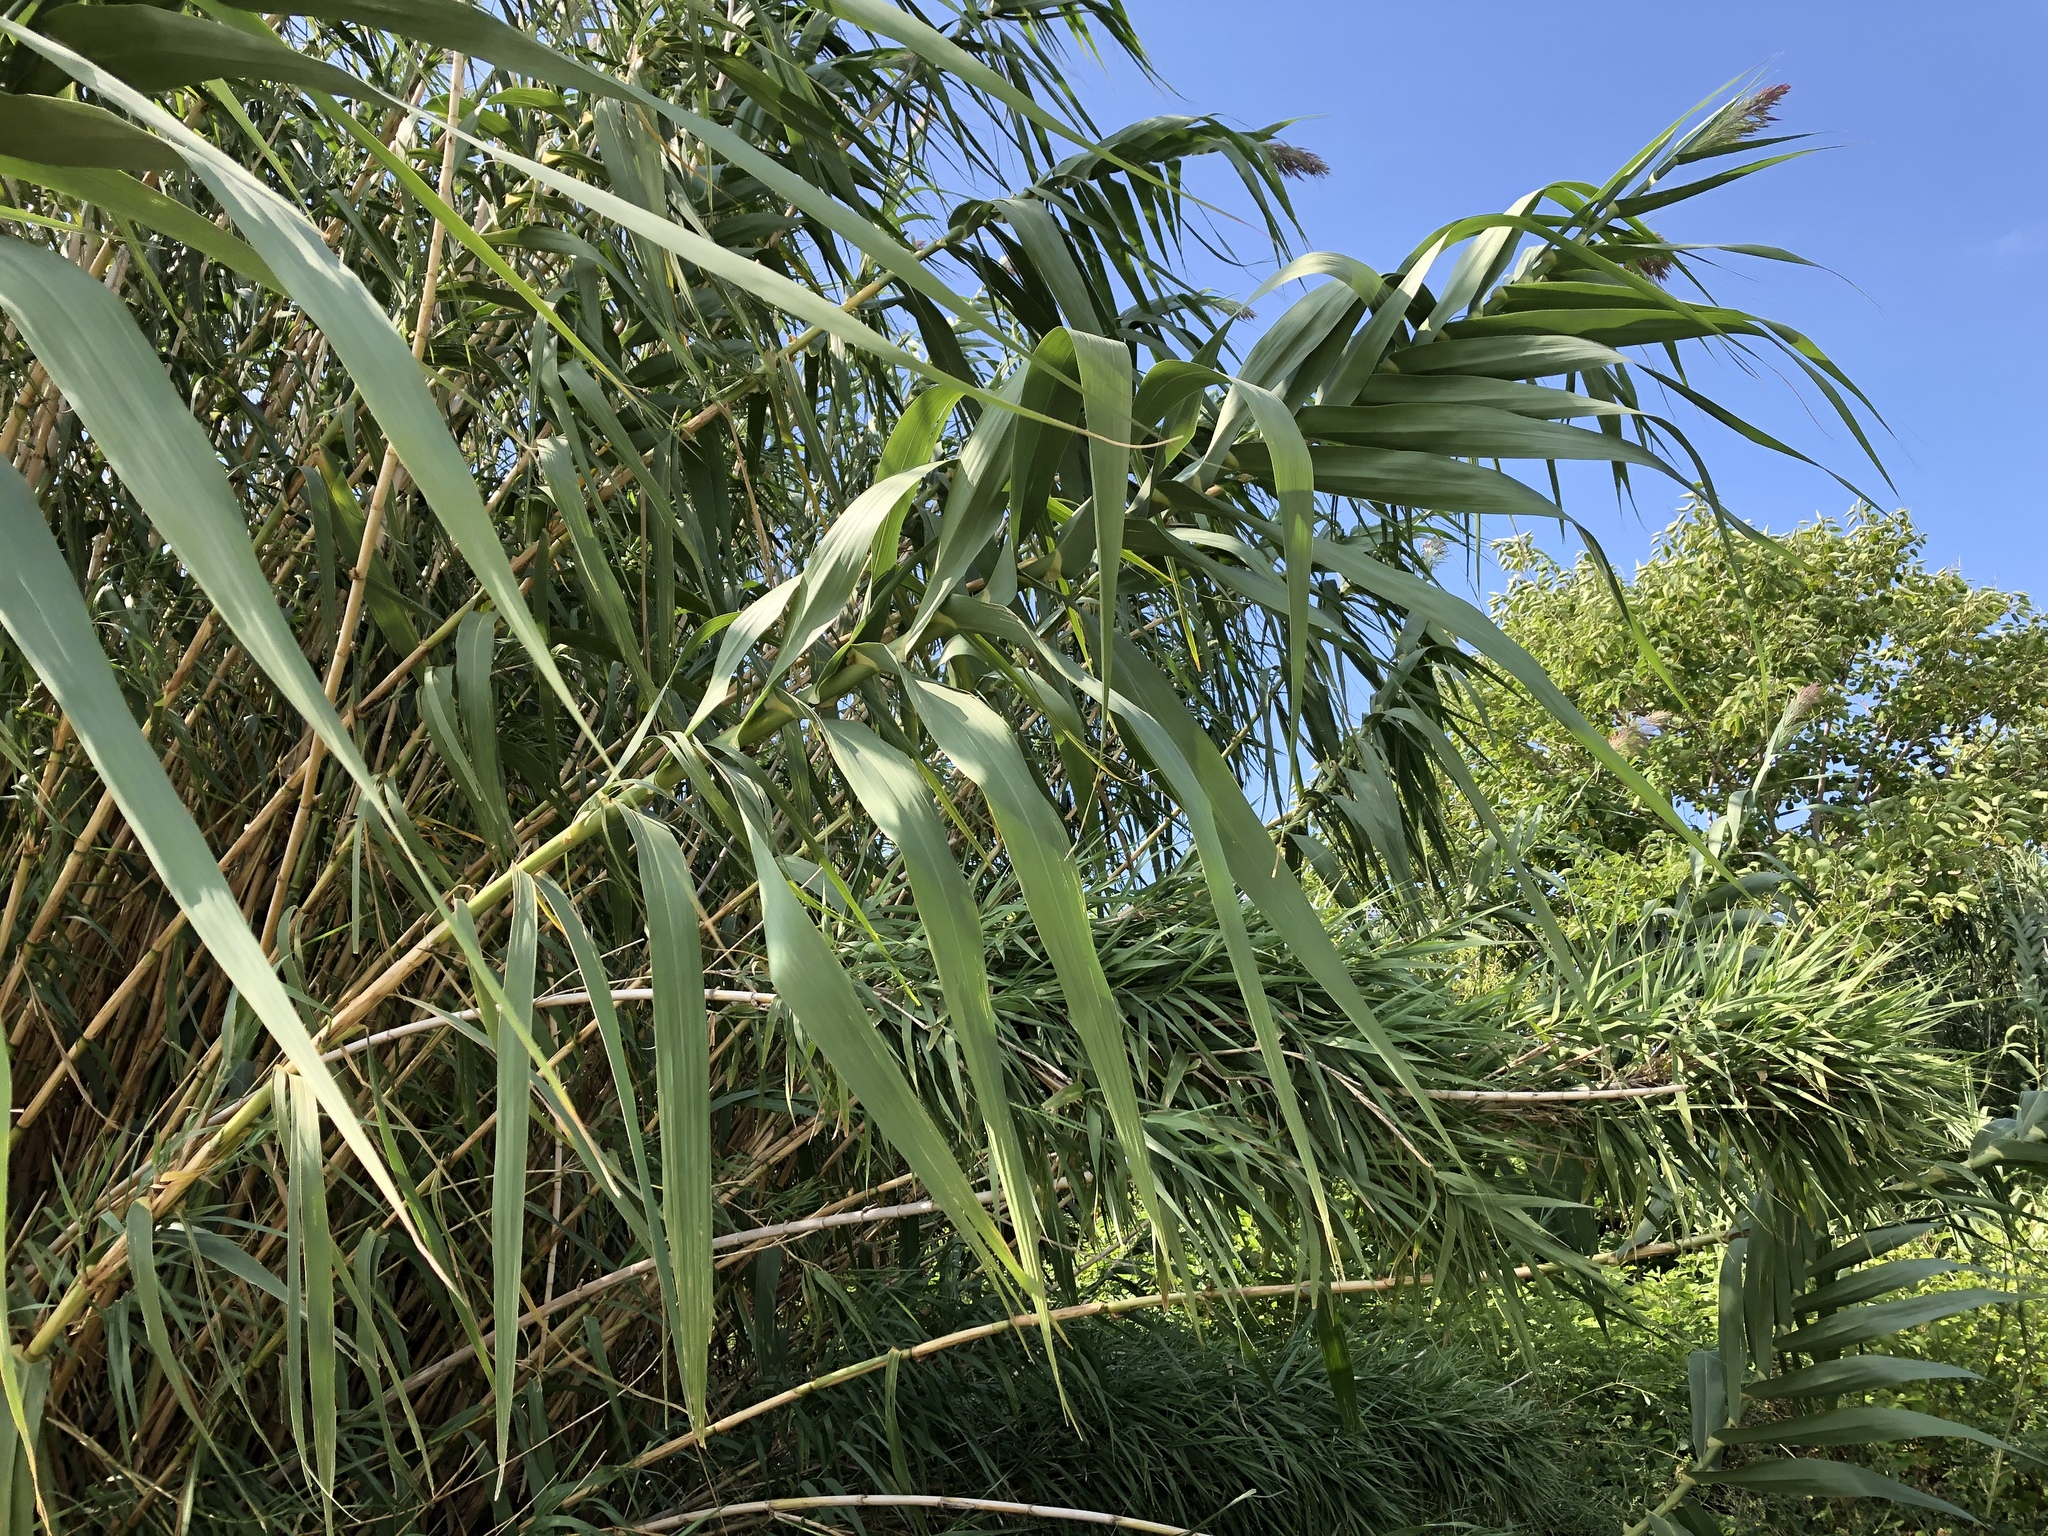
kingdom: Plantae
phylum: Tracheophyta
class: Liliopsida
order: Poales
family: Poaceae
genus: Arundo
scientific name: Arundo donax
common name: Giant reed
